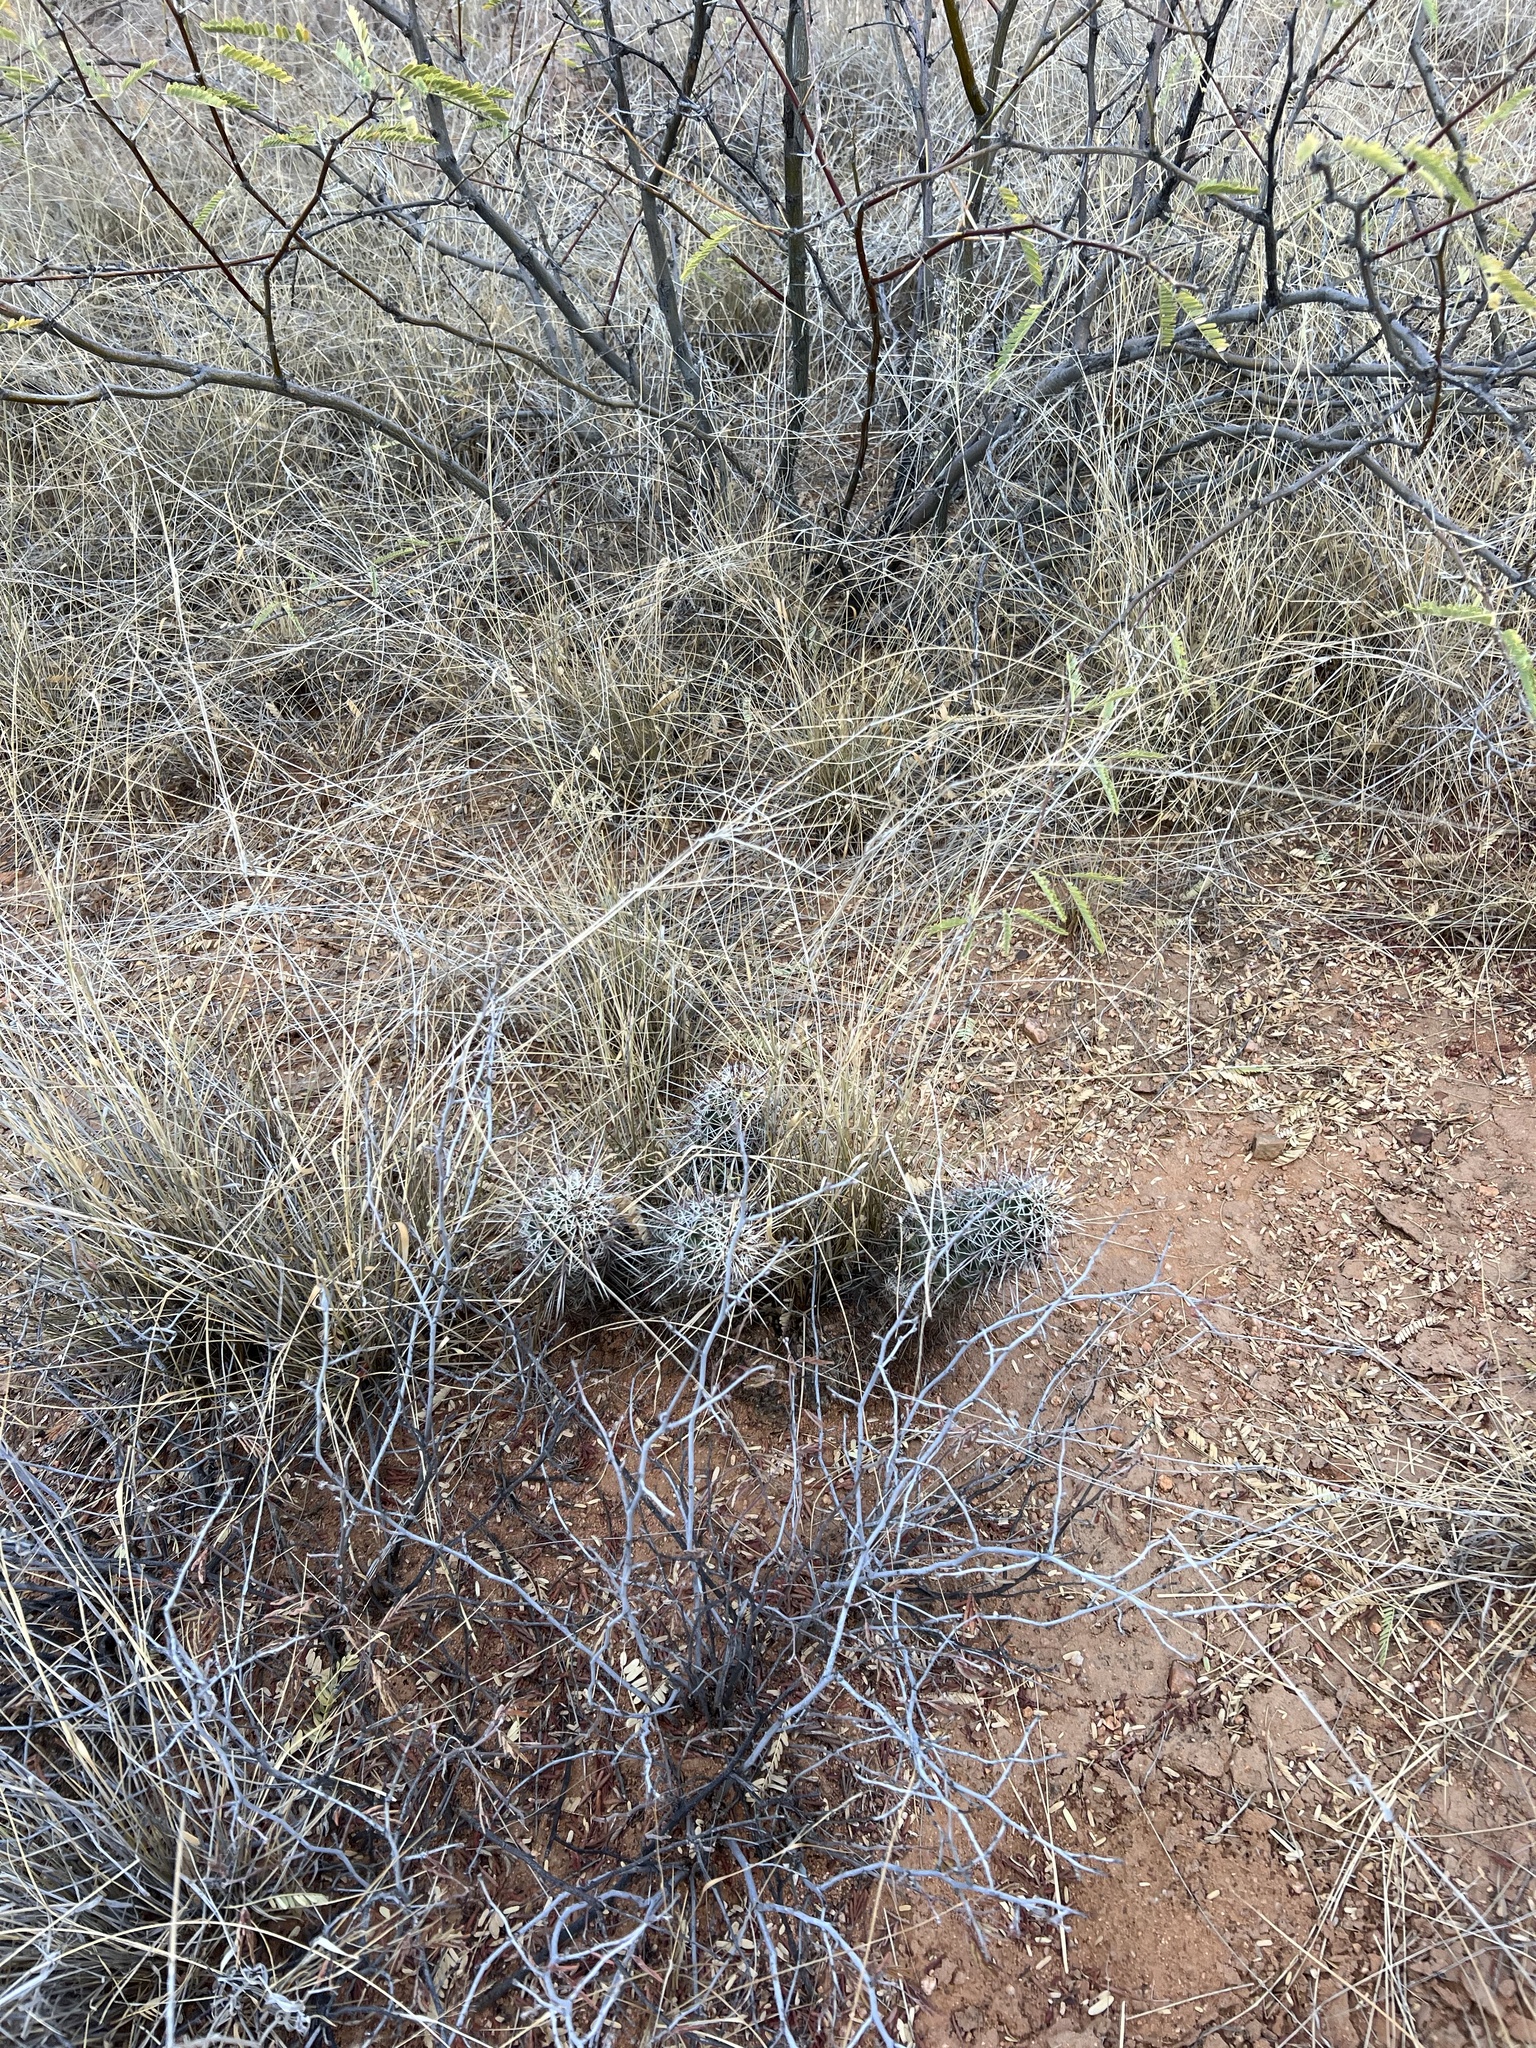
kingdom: Plantae
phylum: Tracheophyta
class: Magnoliopsida
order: Caryophyllales
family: Cactaceae
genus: Echinocereus
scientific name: Echinocereus fasciculatus
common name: Bundle hedgehog
